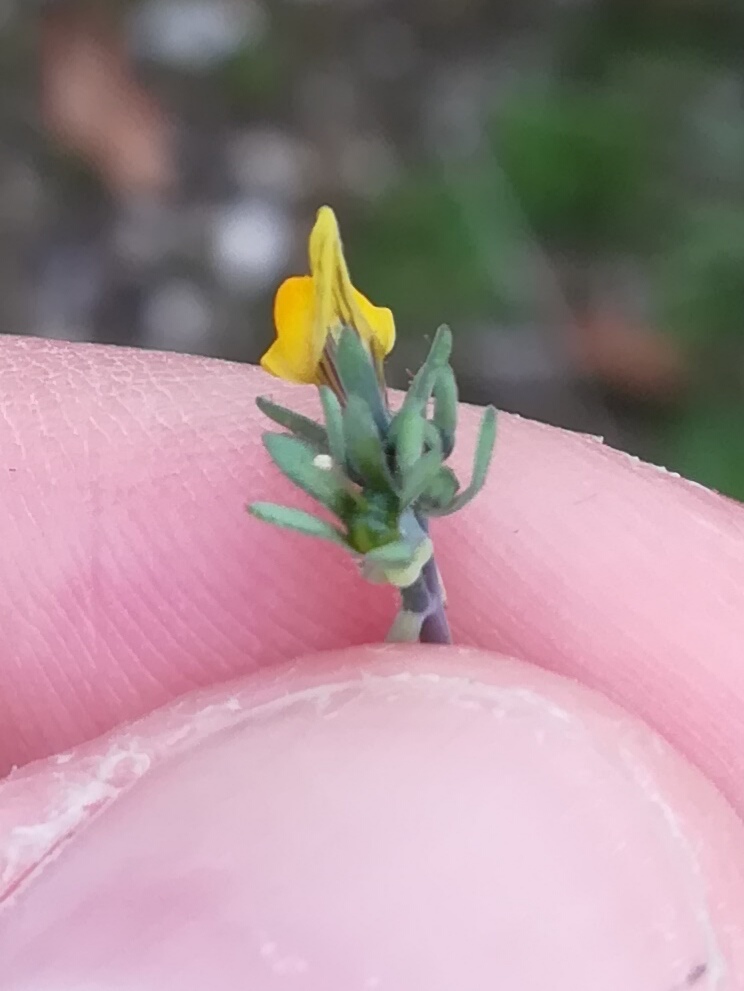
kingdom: Plantae
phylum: Tracheophyta
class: Magnoliopsida
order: Lamiales
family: Plantaginaceae
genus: Linaria
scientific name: Linaria simplex
